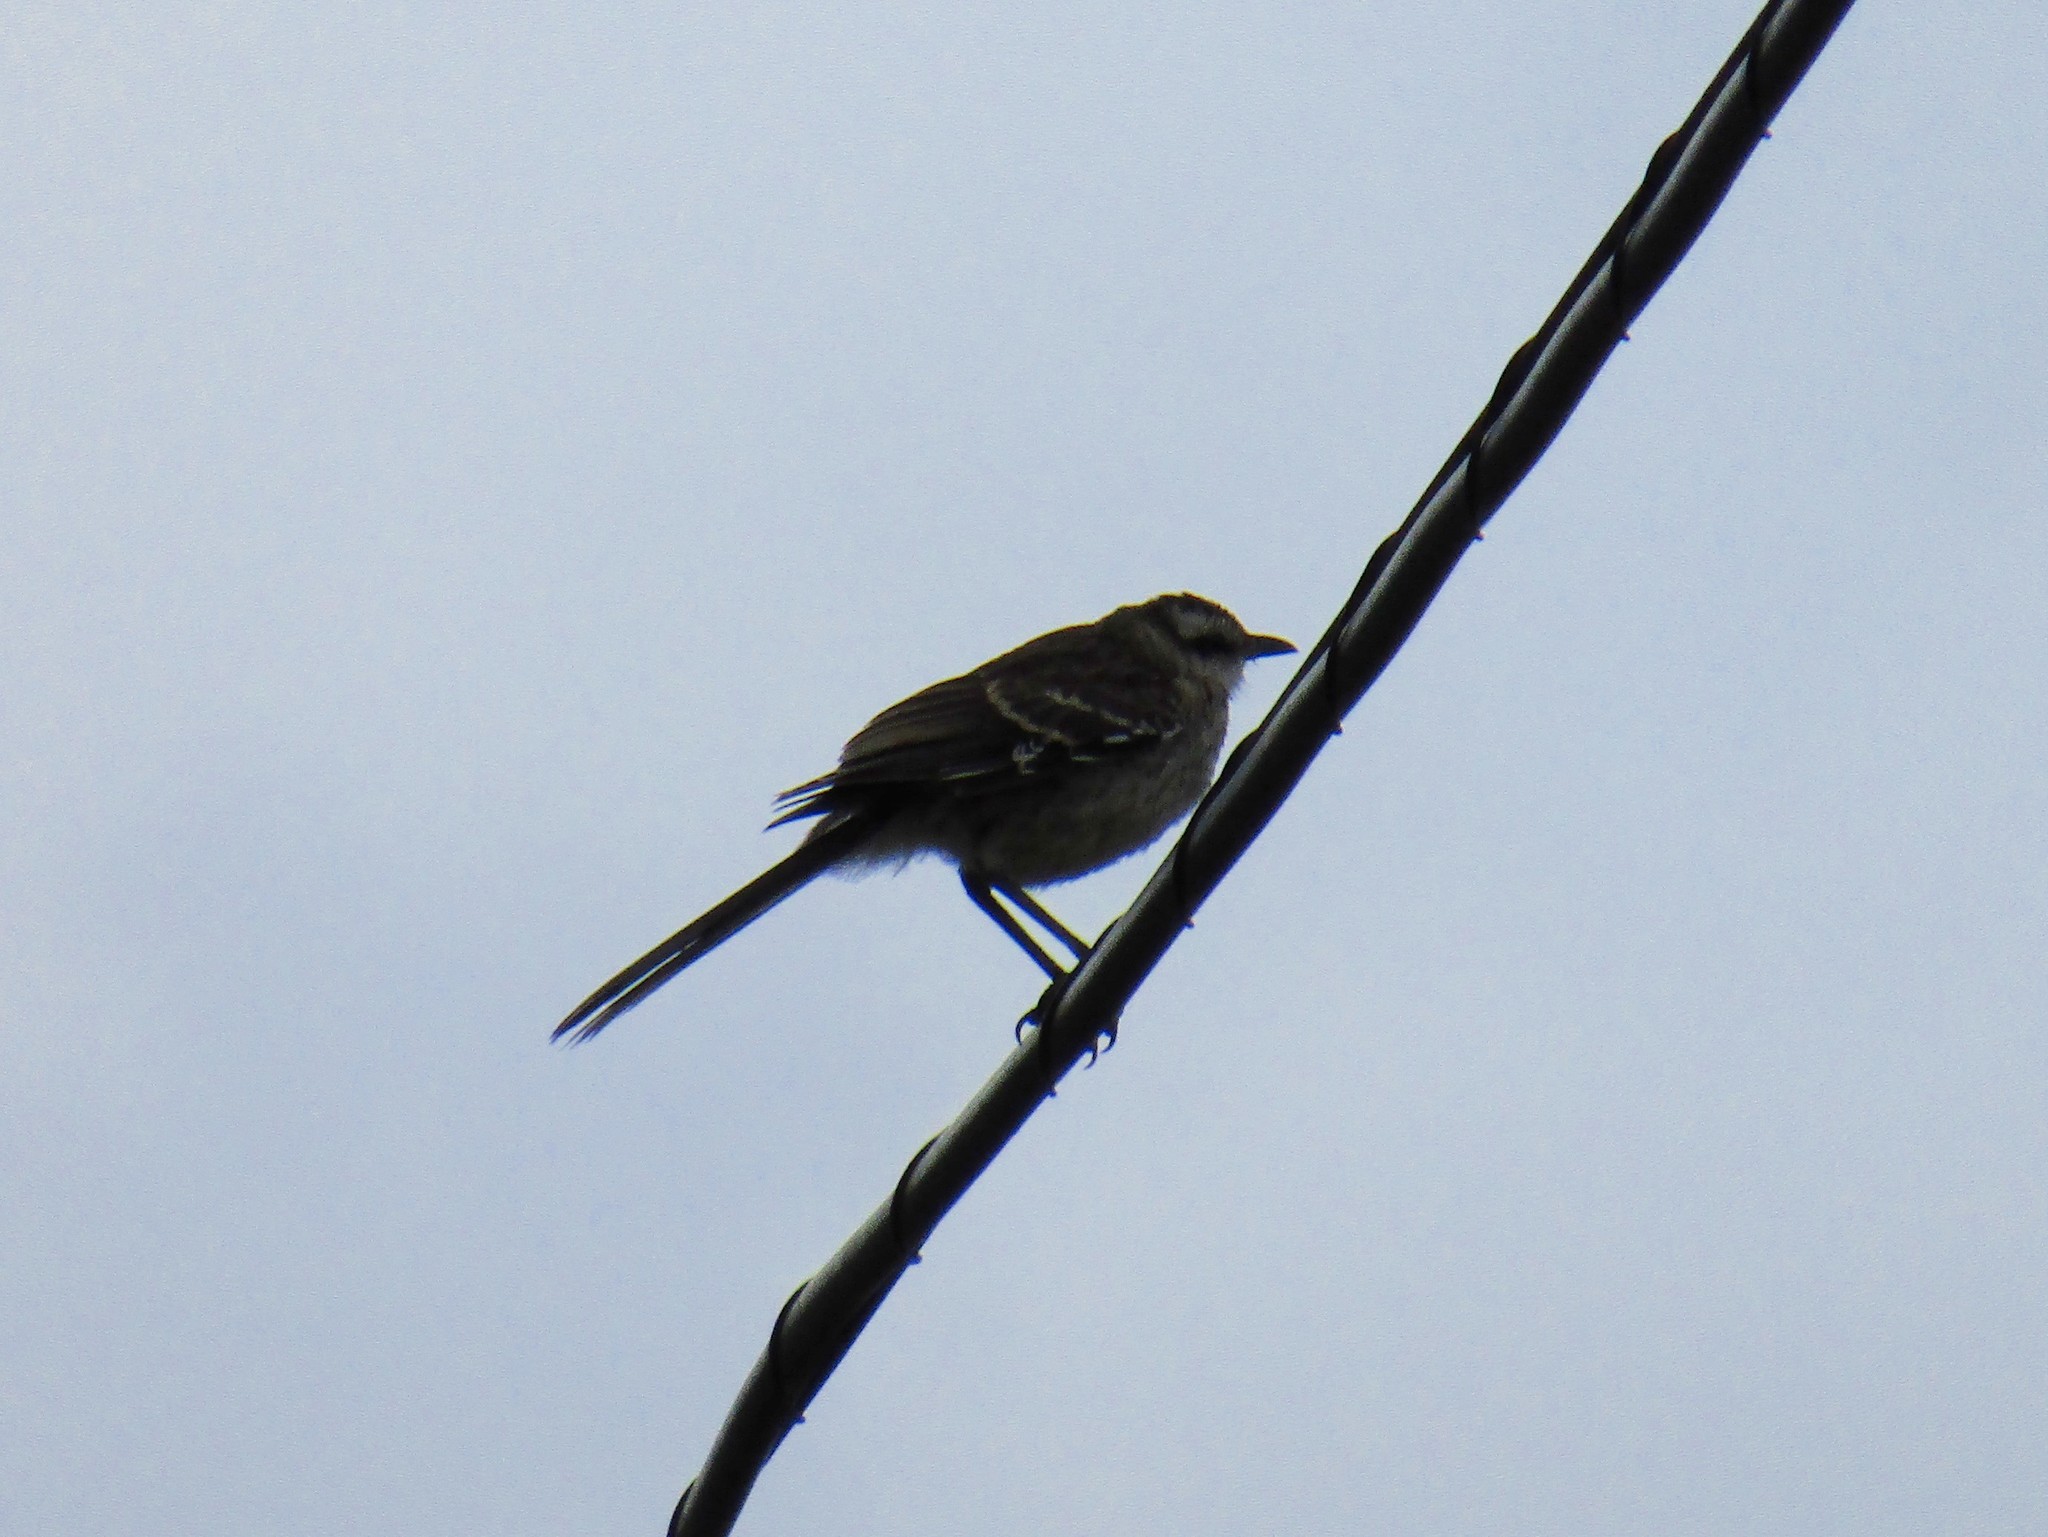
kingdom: Animalia
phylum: Chordata
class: Aves
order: Passeriformes
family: Mimidae
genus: Mimus
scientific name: Mimus saturninus
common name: Chalk-browed mockingbird
